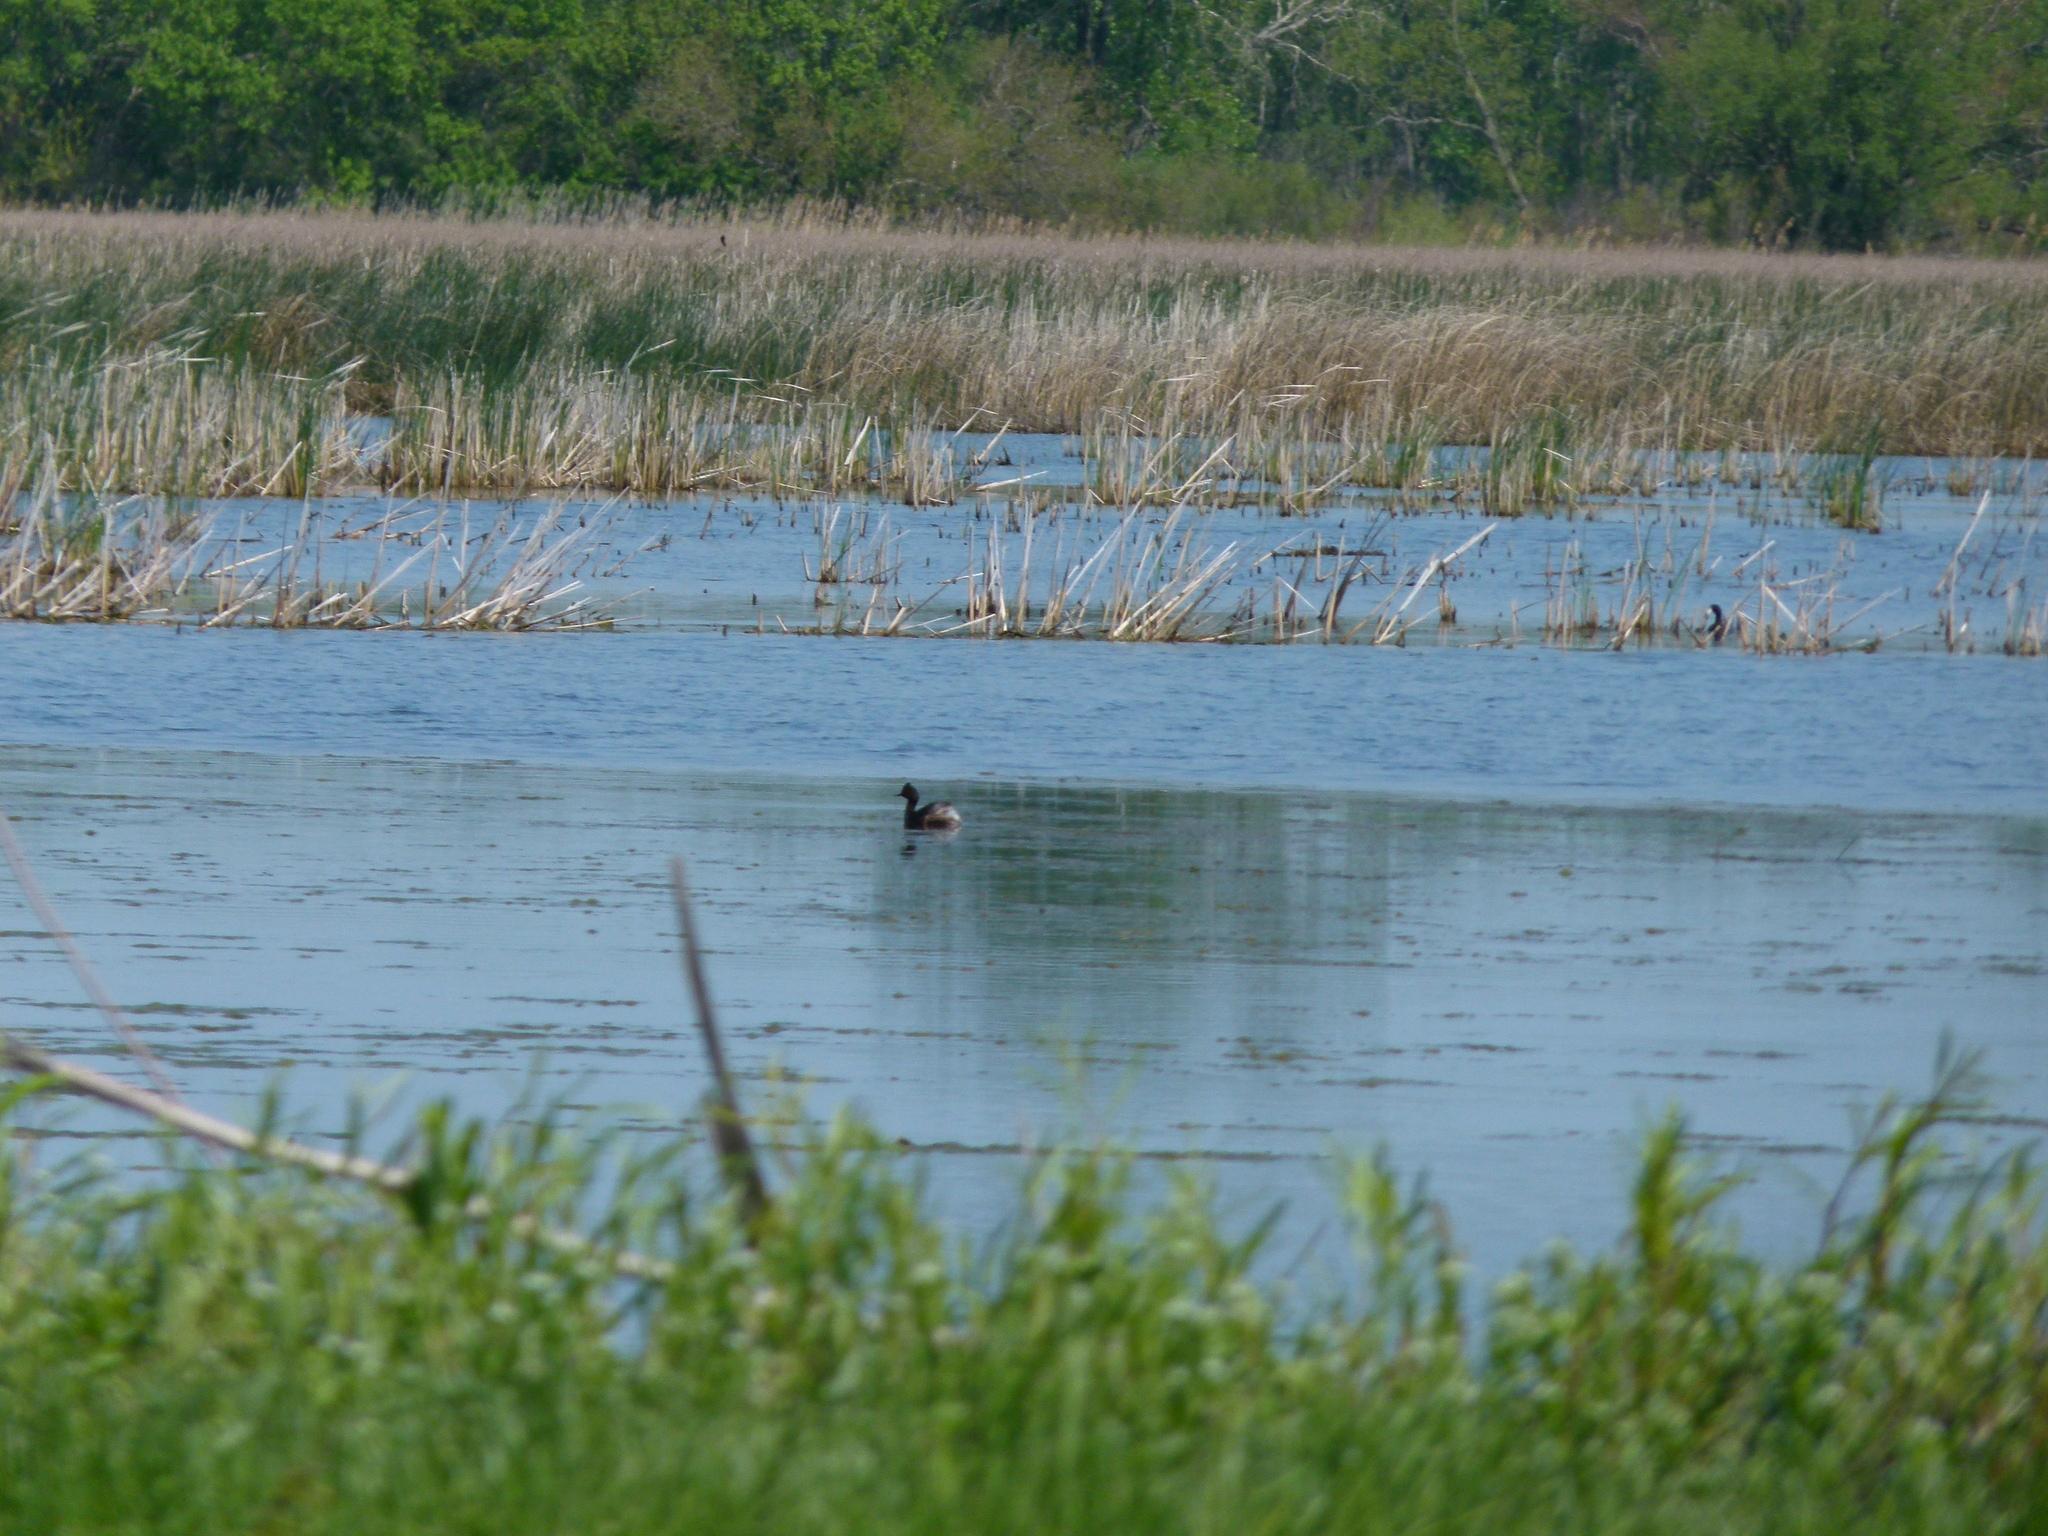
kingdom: Animalia
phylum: Chordata
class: Aves
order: Podicipediformes
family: Podicipedidae
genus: Podiceps
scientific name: Podiceps nigricollis
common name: Black-necked grebe
